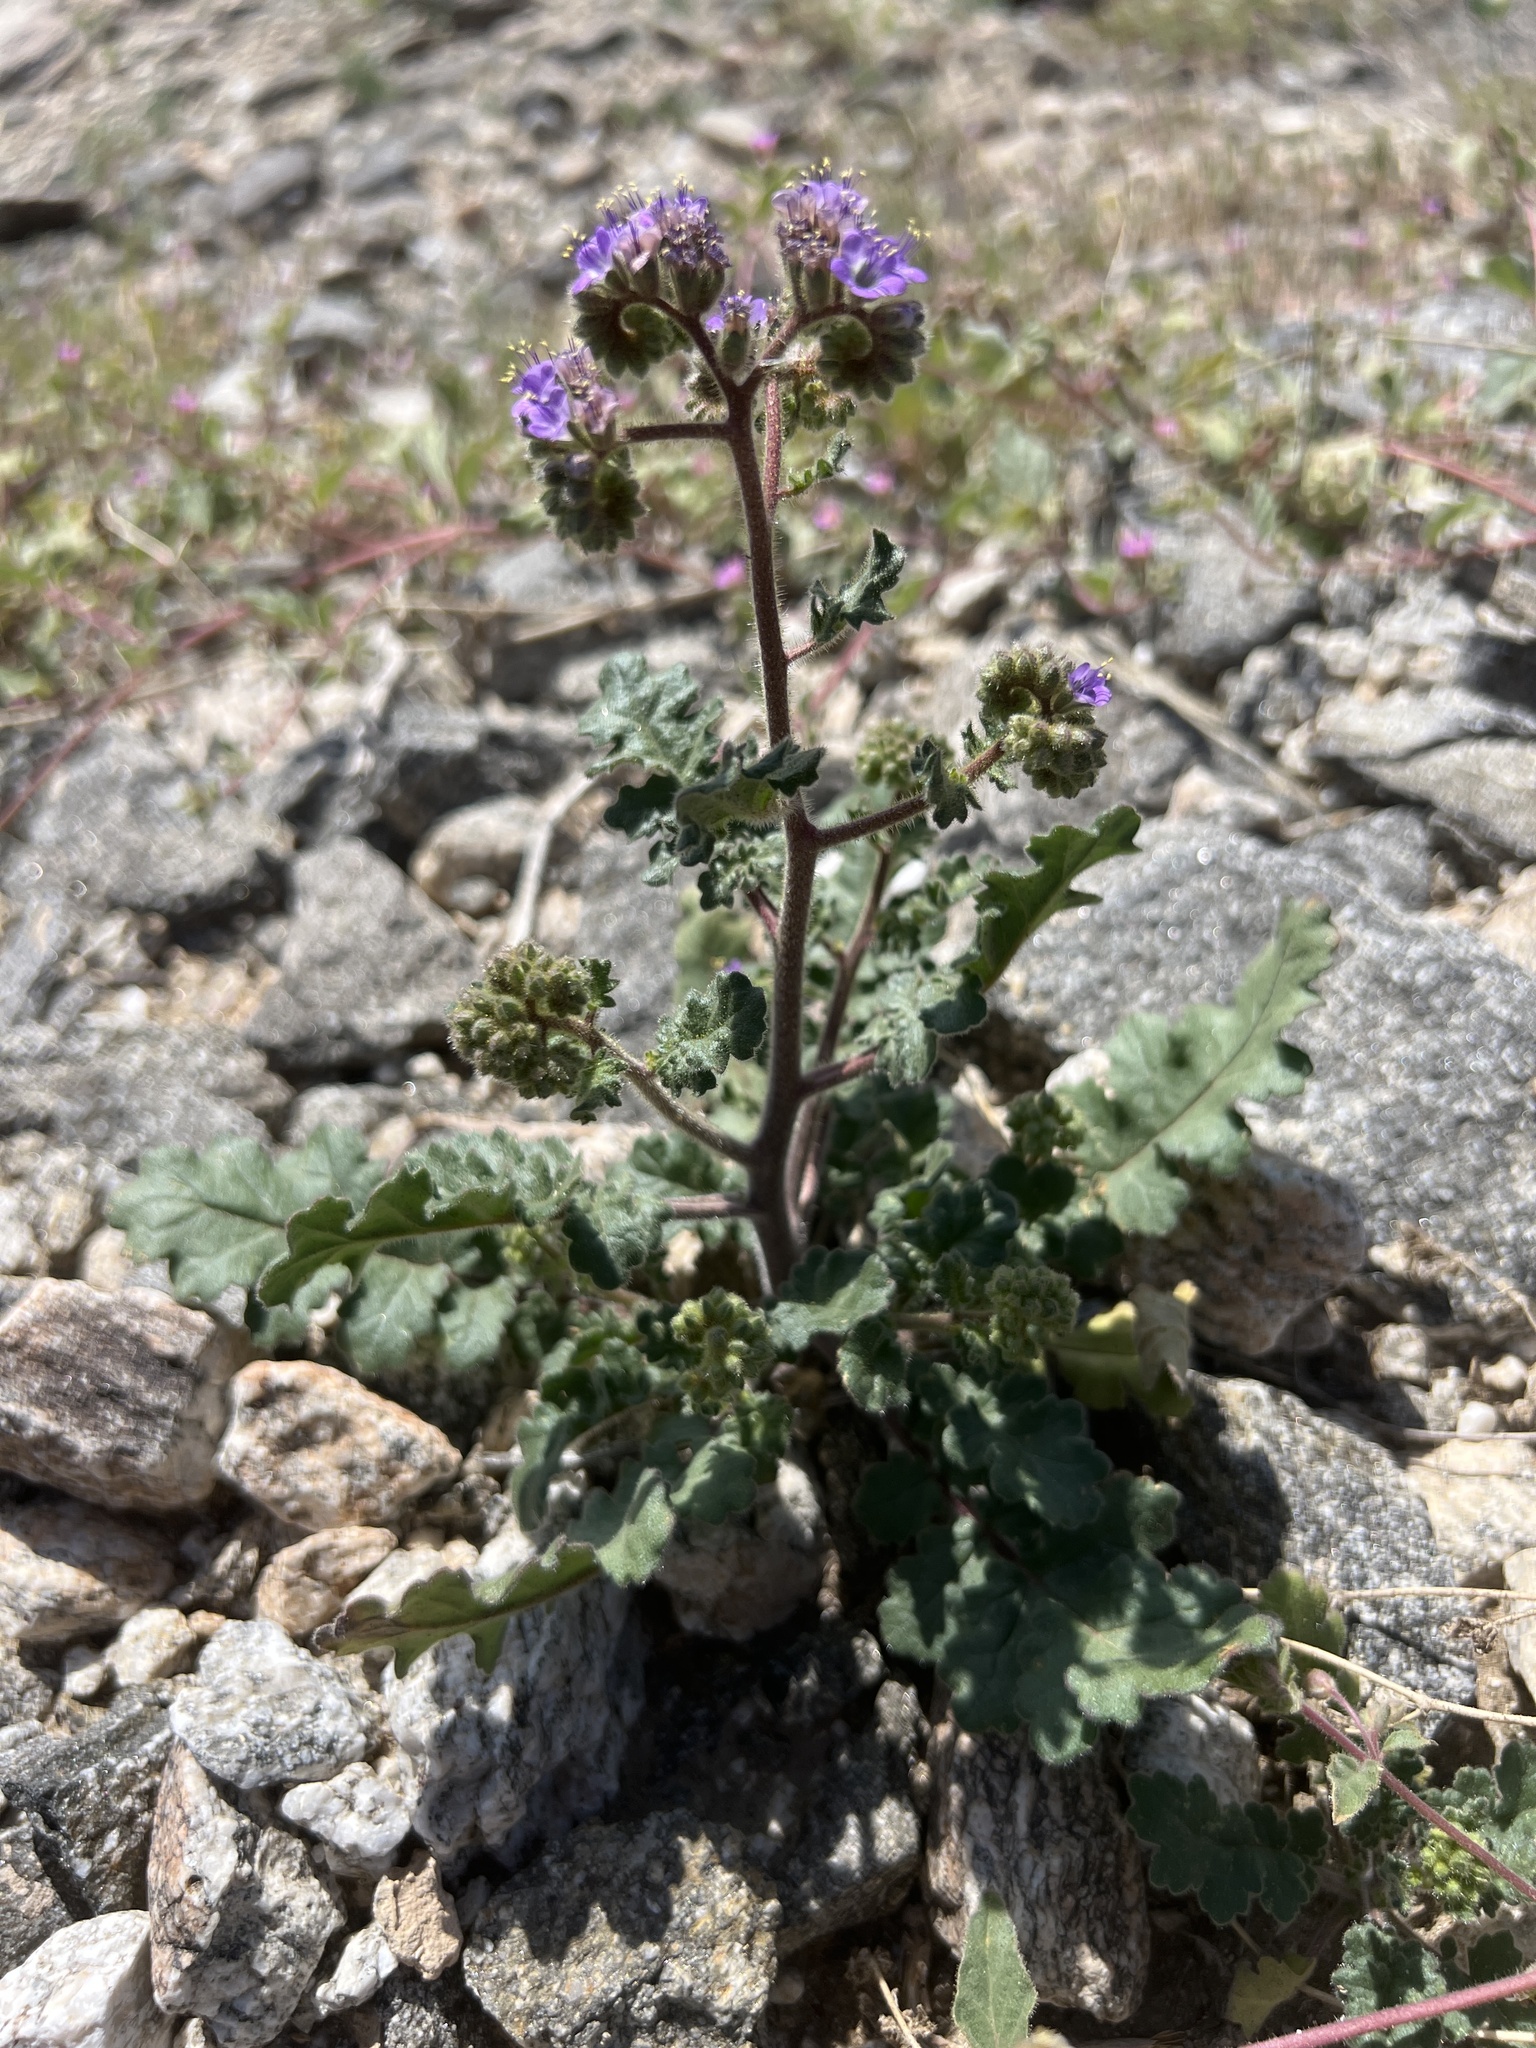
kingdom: Plantae
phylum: Tracheophyta
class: Magnoliopsida
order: Boraginales
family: Hydrophyllaceae
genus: Phacelia
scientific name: Phacelia crenulata
